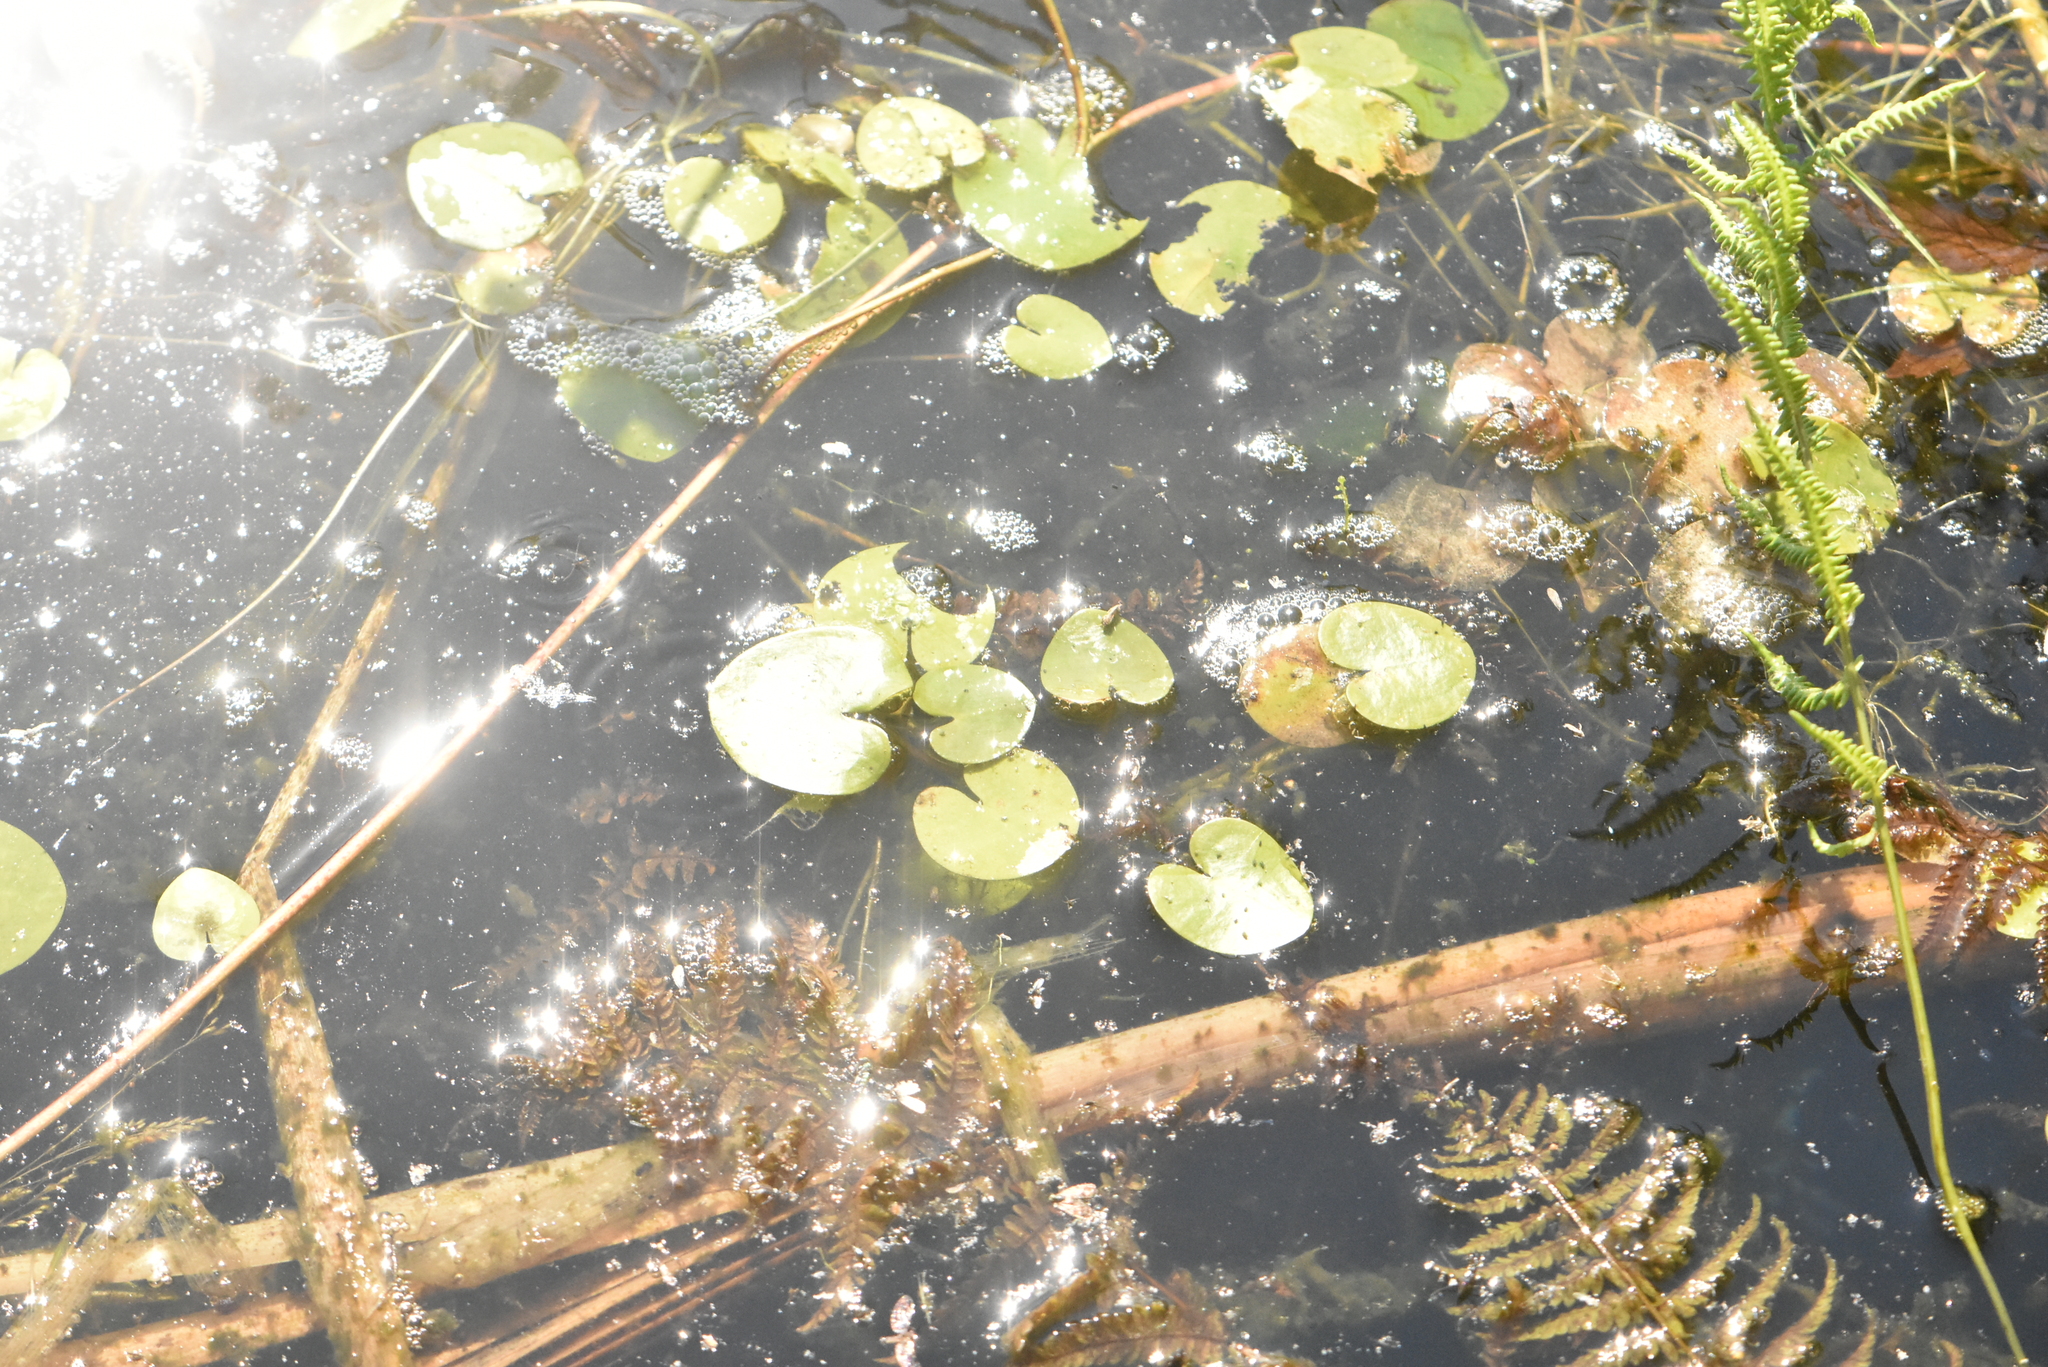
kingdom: Plantae
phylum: Tracheophyta
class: Liliopsida
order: Alismatales
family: Hydrocharitaceae
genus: Hydrocharis
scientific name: Hydrocharis morsus-ranae
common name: Frogbit
